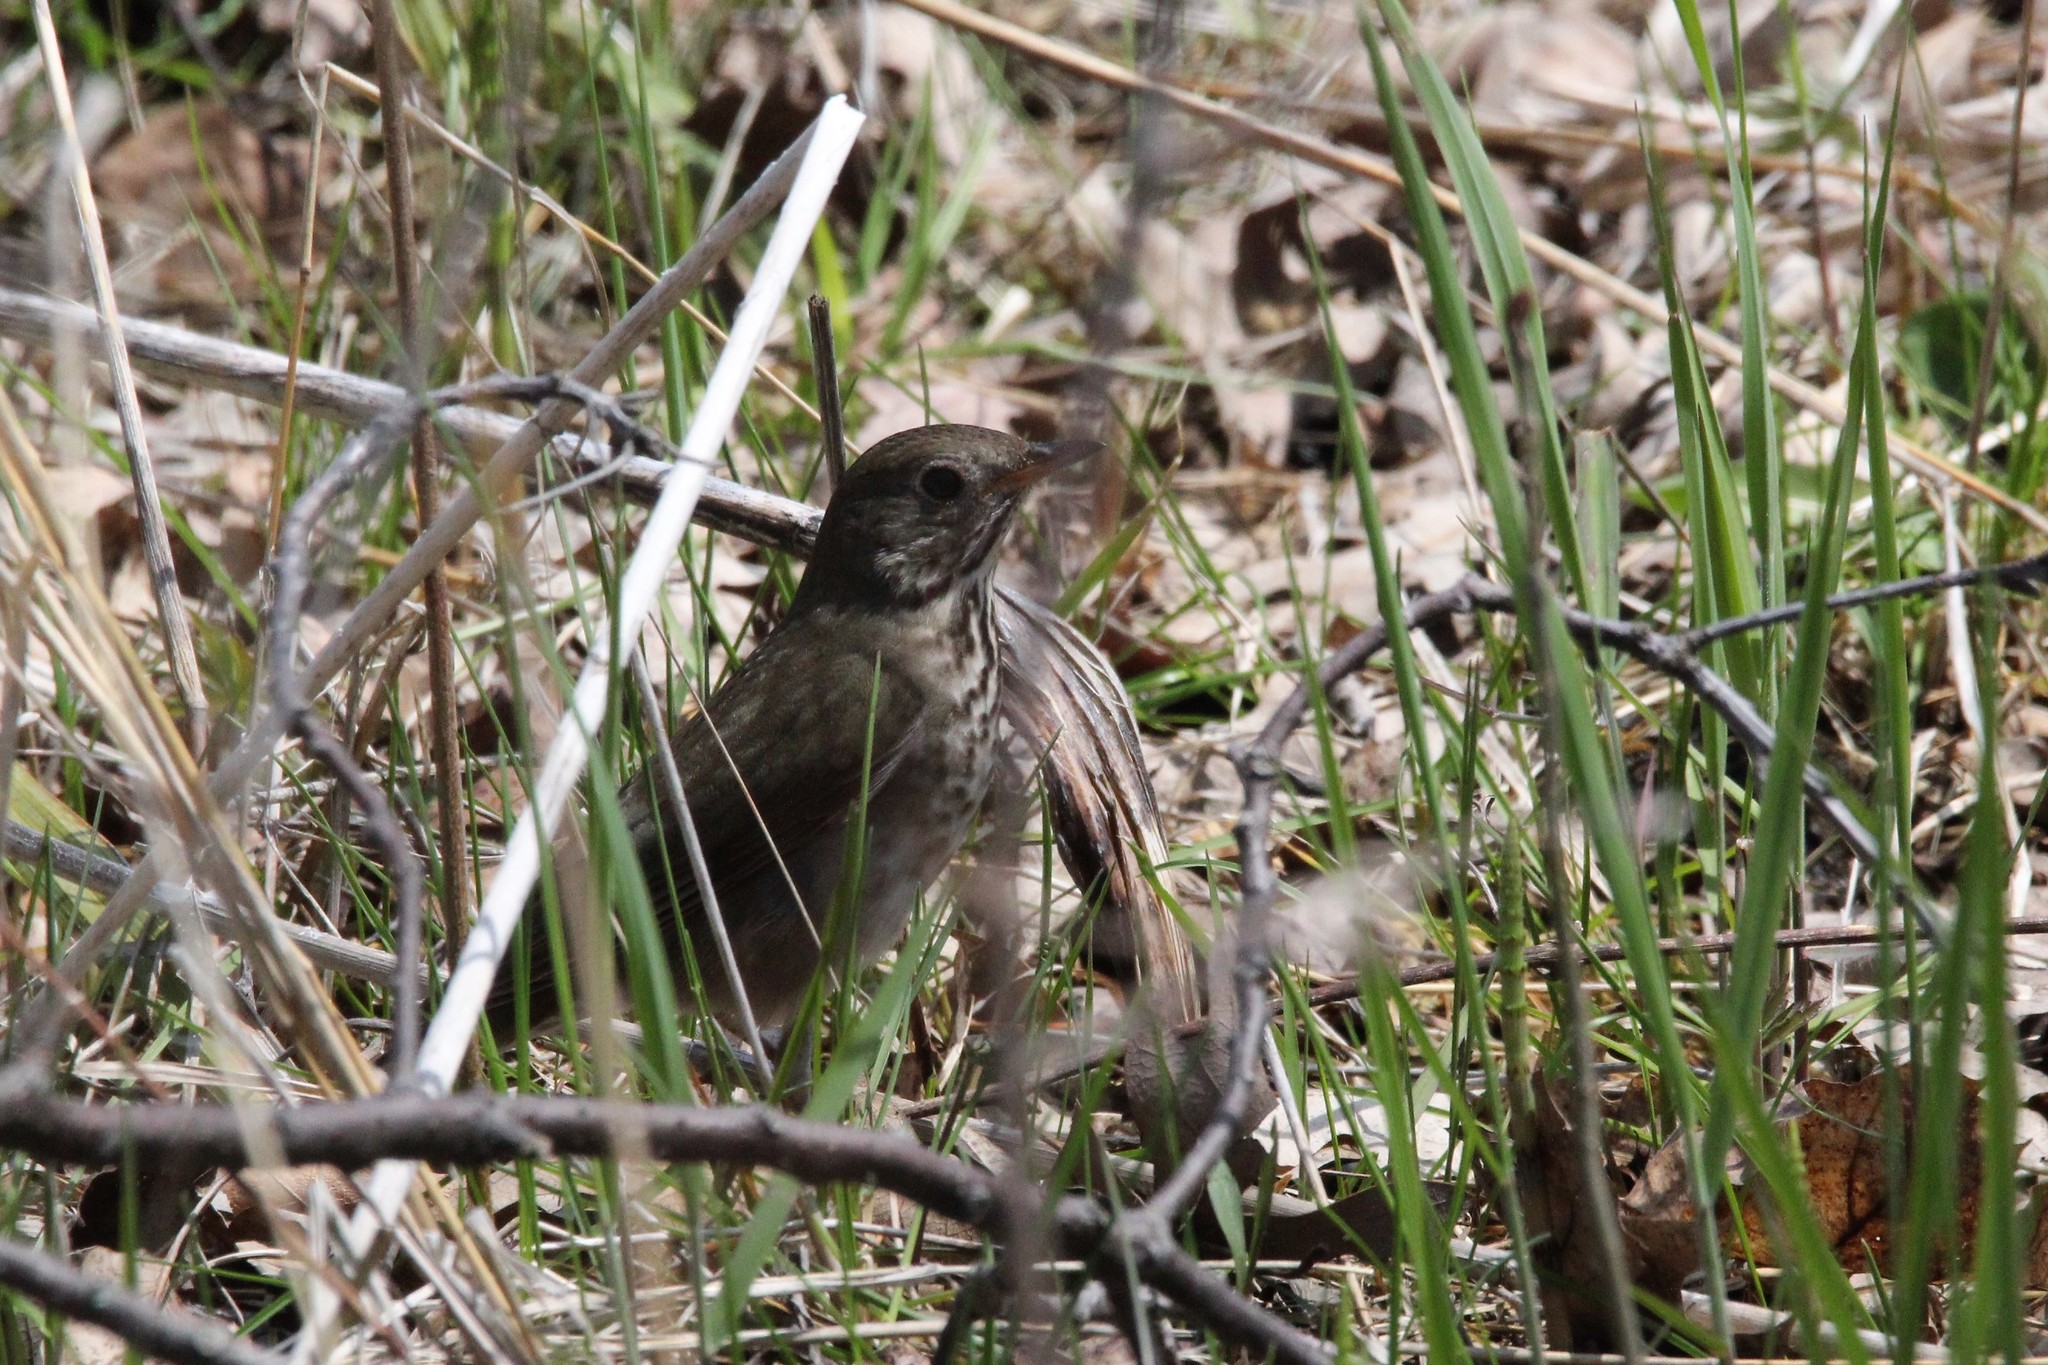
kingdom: Animalia
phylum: Chordata
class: Aves
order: Passeriformes
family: Turdidae
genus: Catharus
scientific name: Catharus minimus
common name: Grey-cheeked thrush
